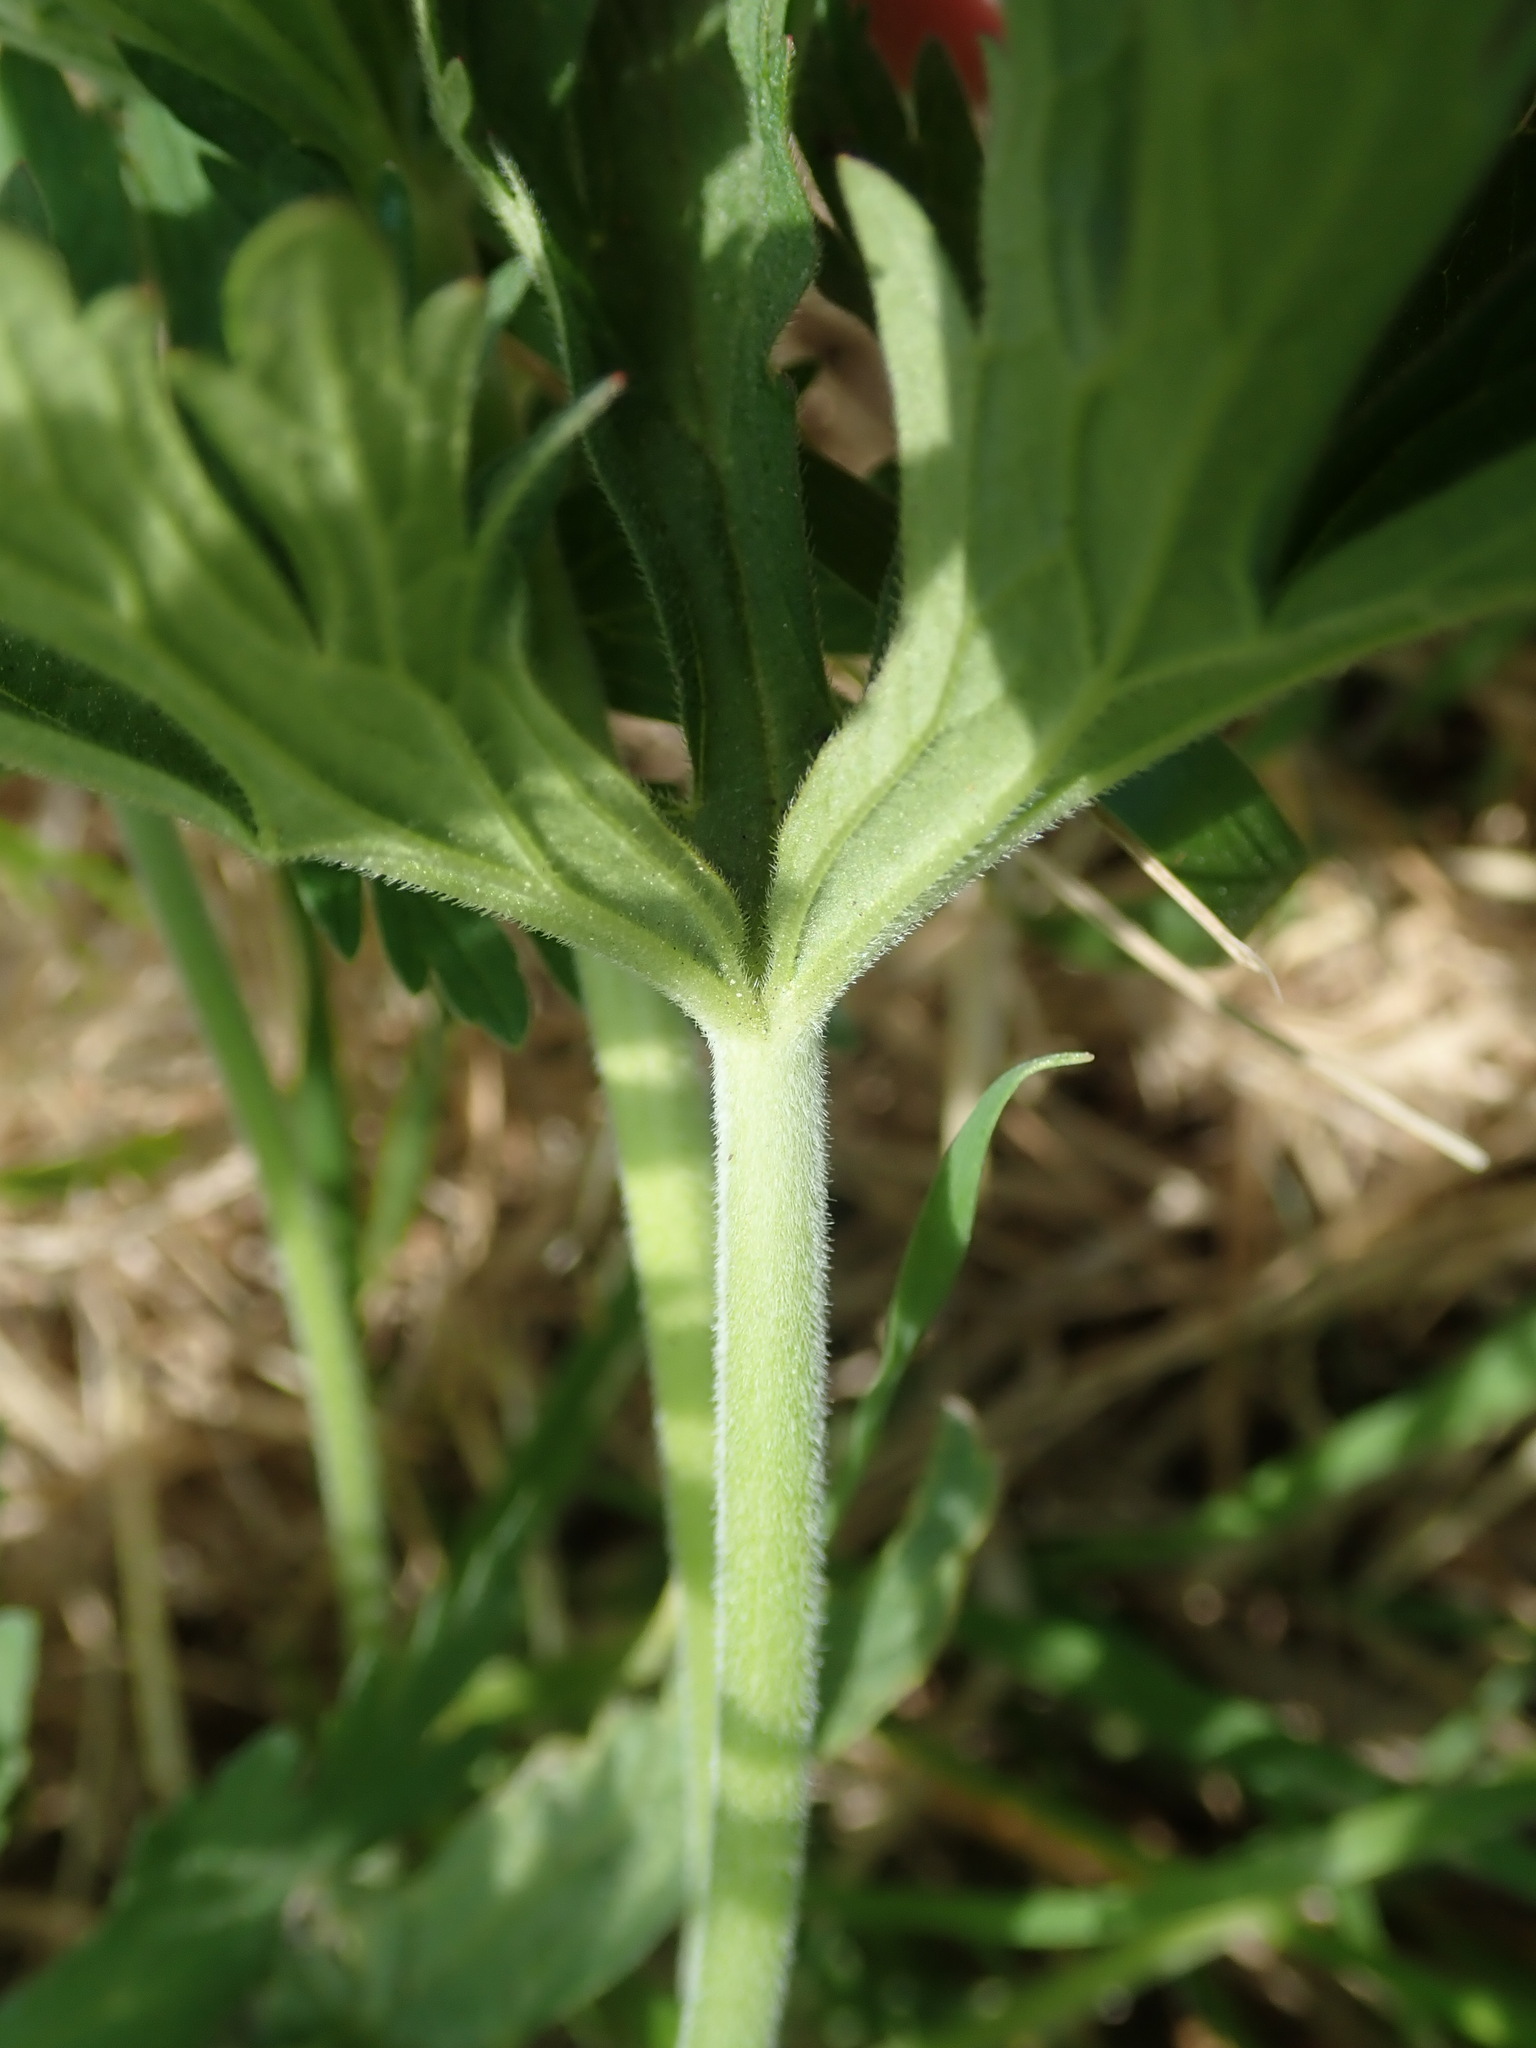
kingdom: Plantae
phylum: Tracheophyta
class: Magnoliopsida
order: Geraniales
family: Geraniaceae
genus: Geranium
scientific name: Geranium pratense
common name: Meadow crane's-bill
